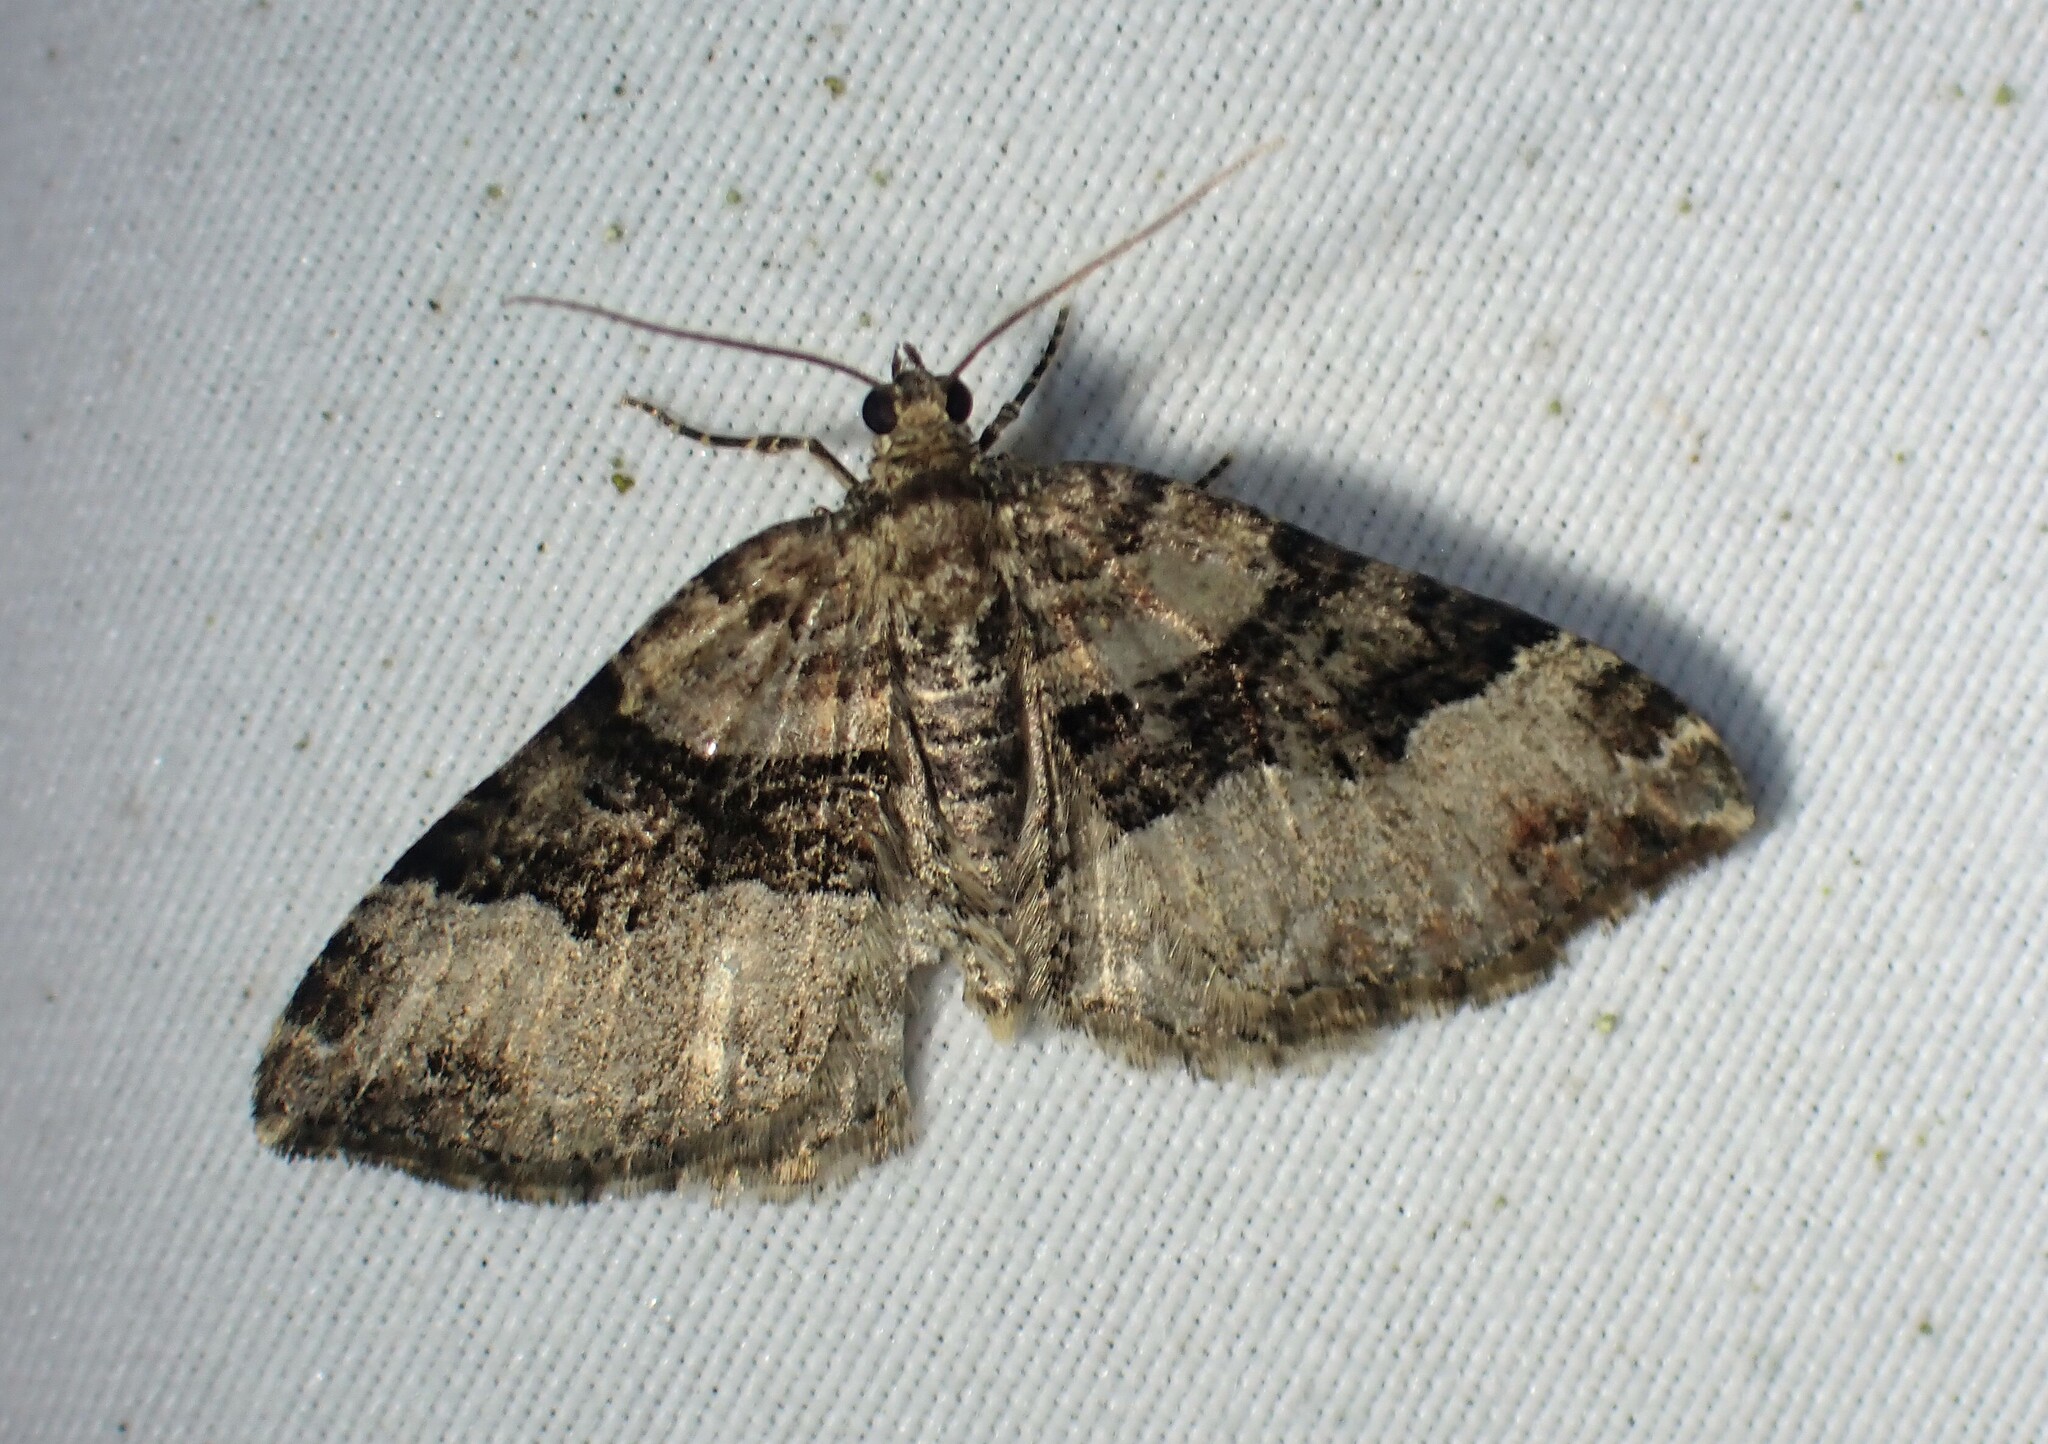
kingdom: Animalia
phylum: Arthropoda
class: Insecta
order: Lepidoptera
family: Geometridae
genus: Xanthorhoe
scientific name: Xanthorhoe lacustrata
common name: Toothed brown carpet
